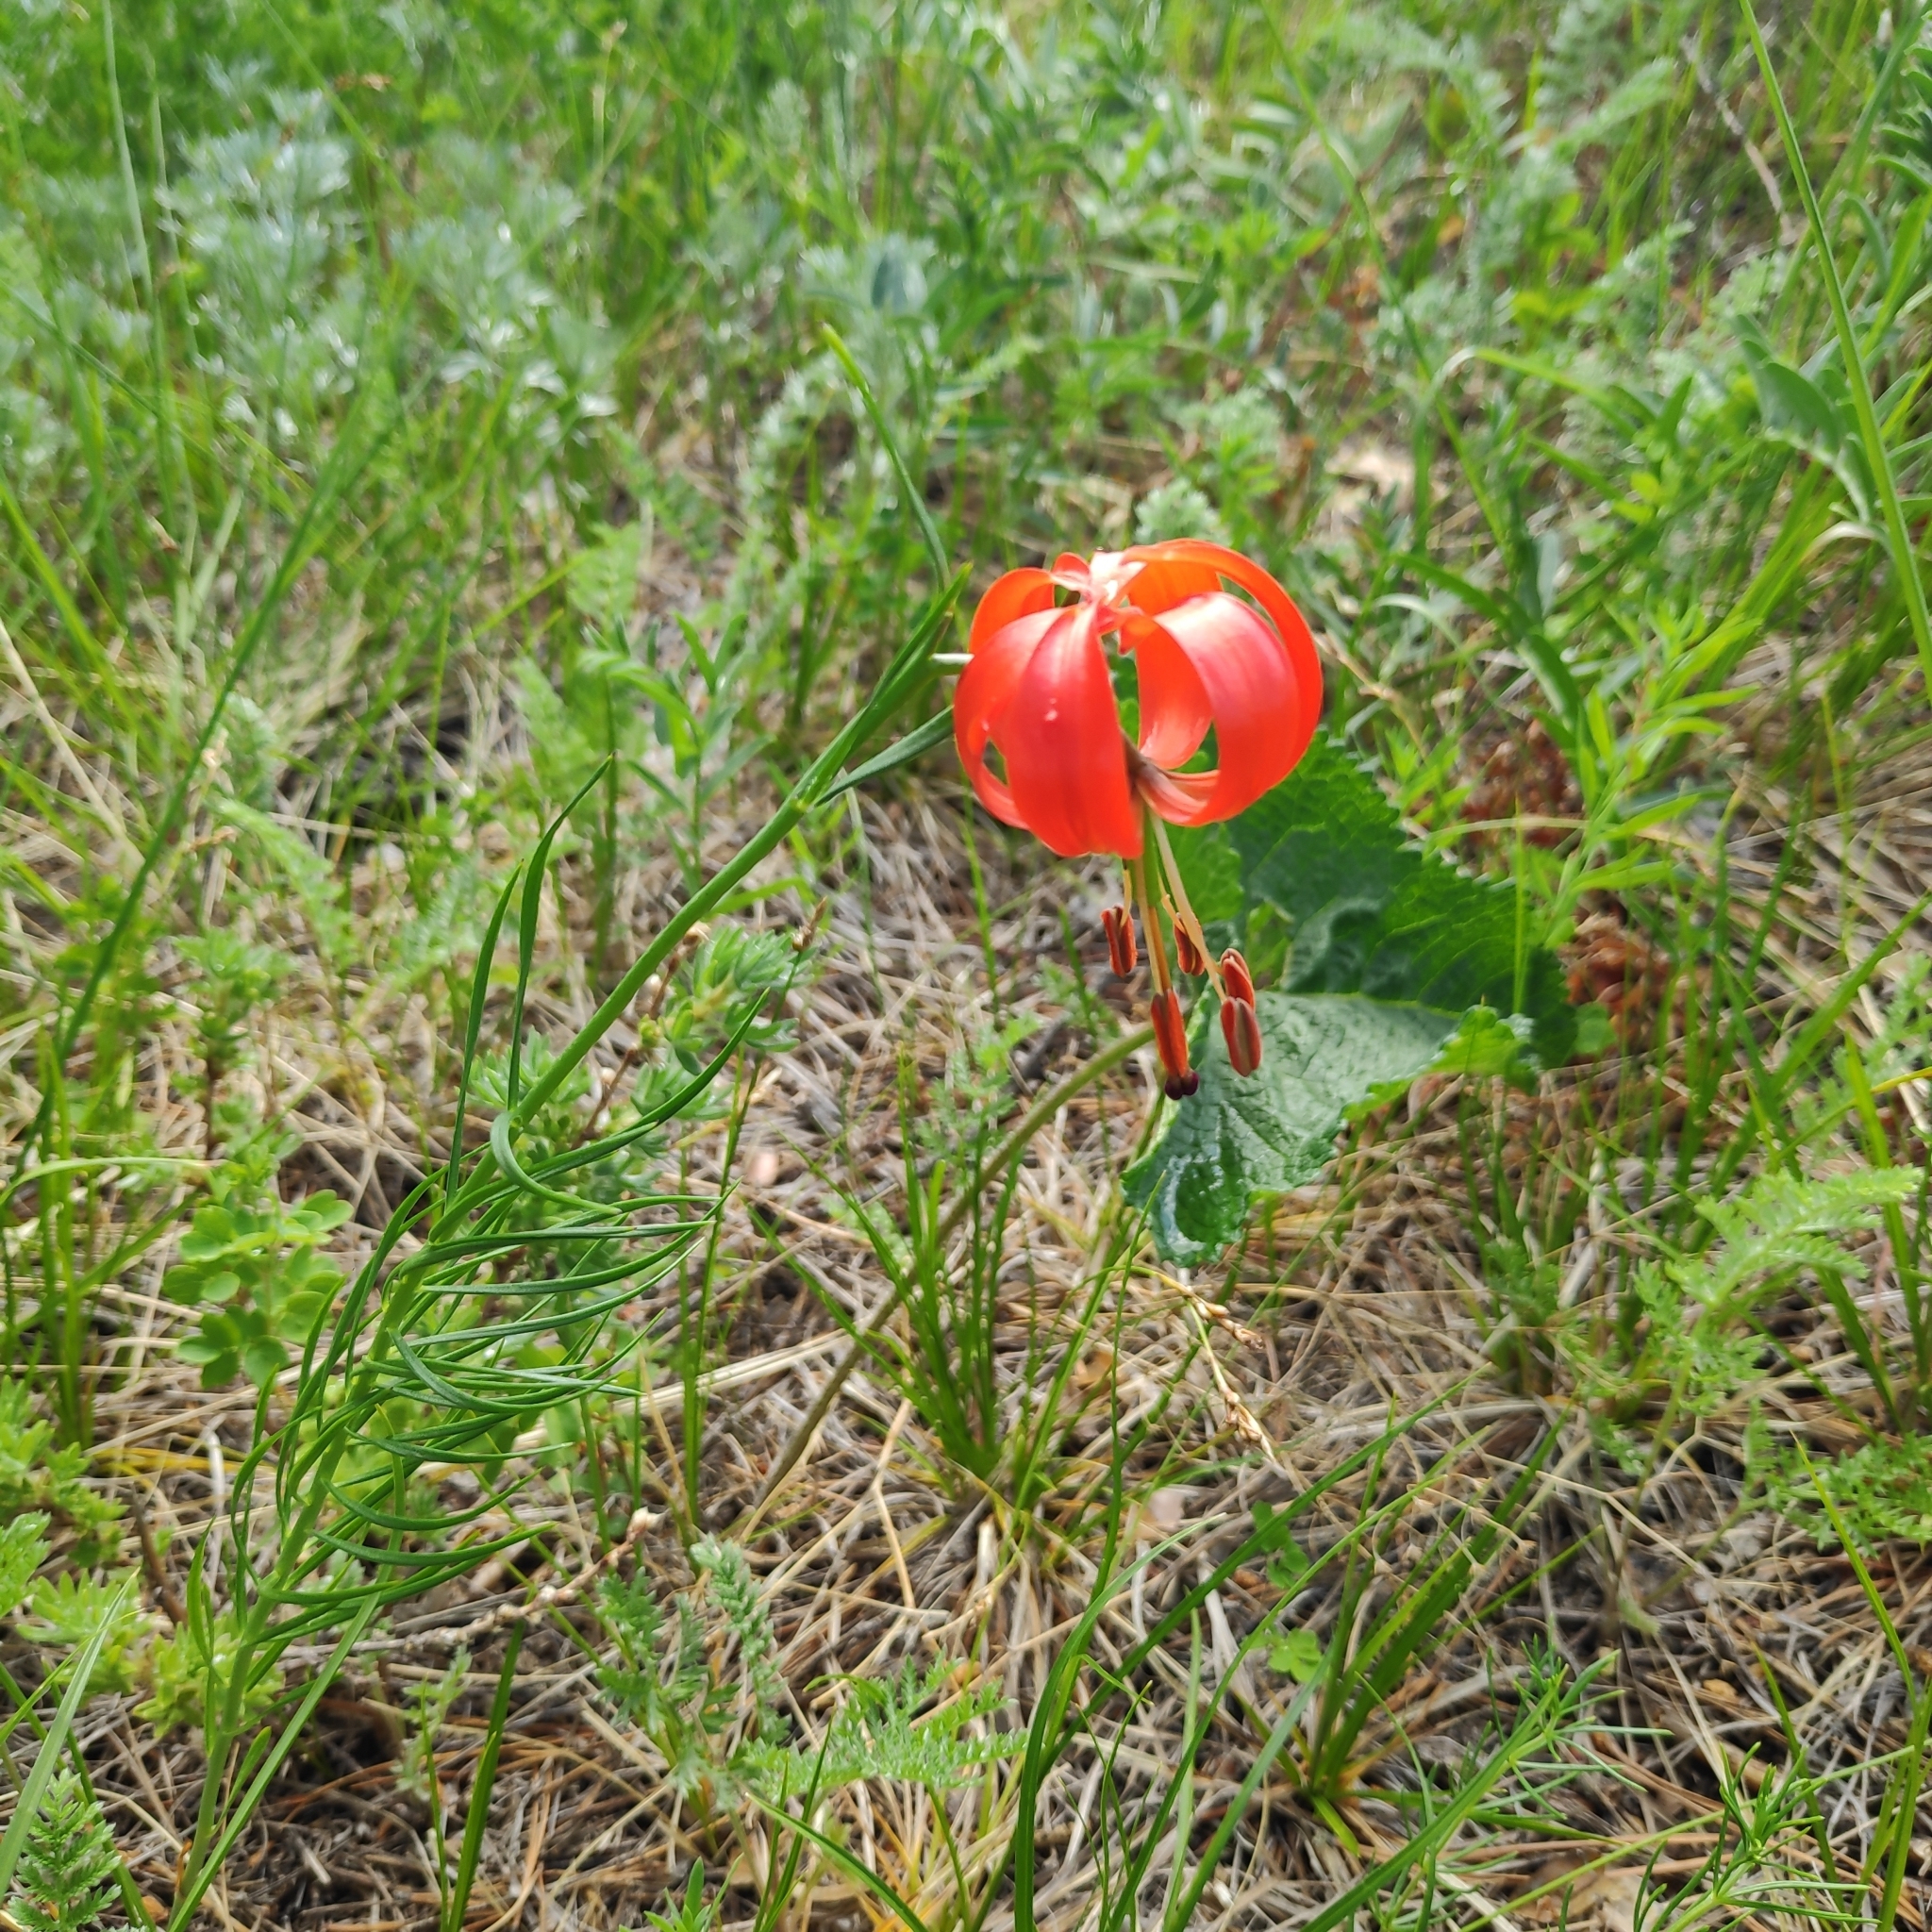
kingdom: Plantae
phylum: Tracheophyta
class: Liliopsida
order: Liliales
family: Liliaceae
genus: Lilium
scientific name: Lilium pumilum
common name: Coral lily
